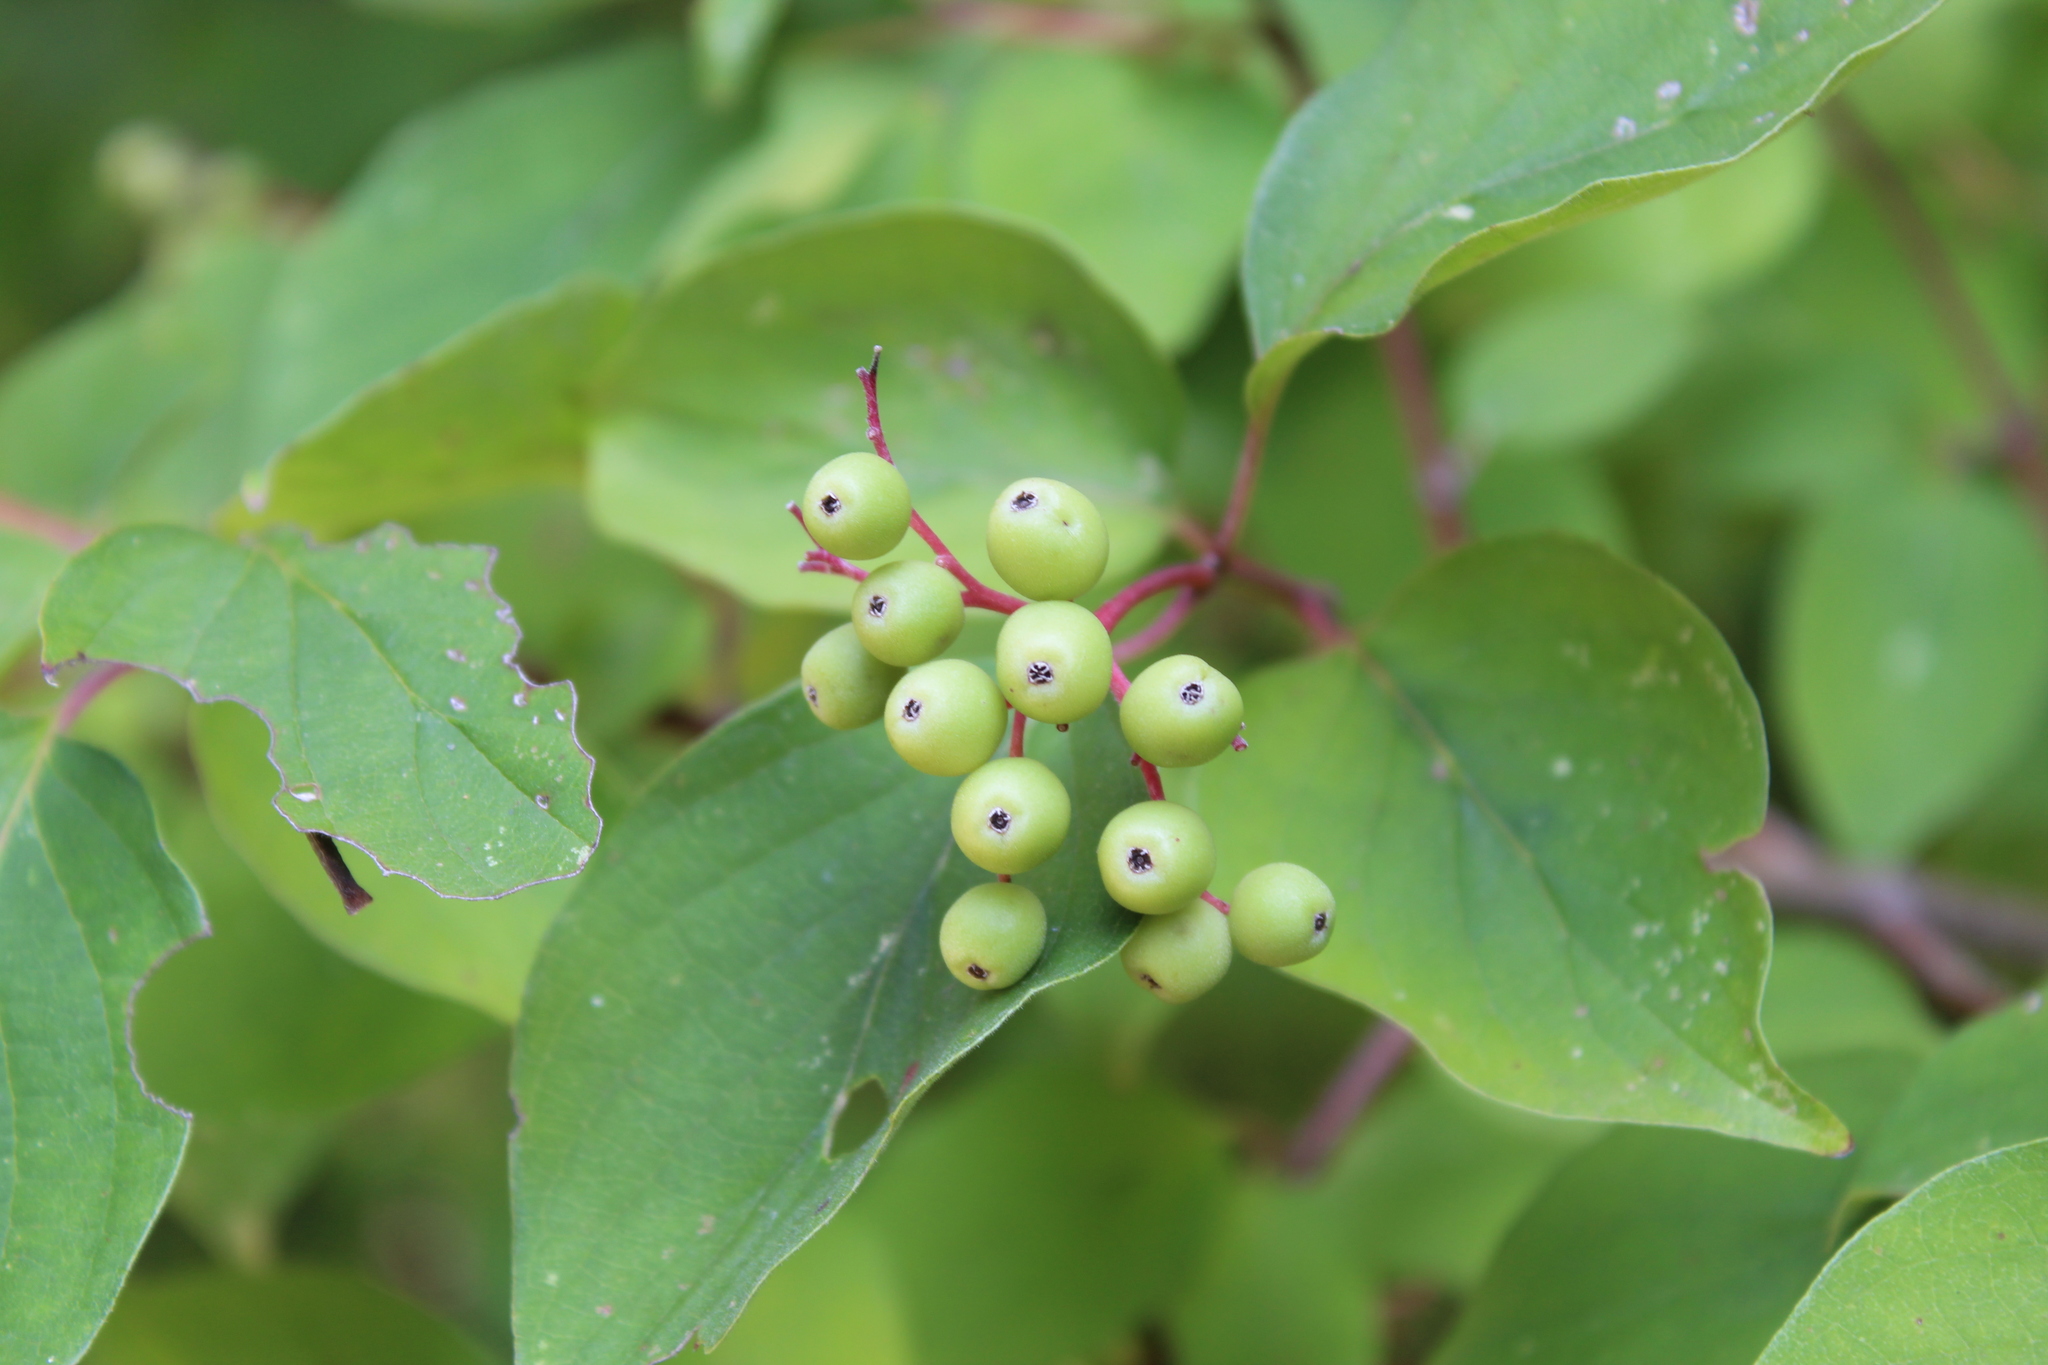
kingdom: Plantae
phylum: Tracheophyta
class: Magnoliopsida
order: Cornales
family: Cornaceae
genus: Cornus
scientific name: Cornus drummondii
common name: Rough-leaf dogwood
